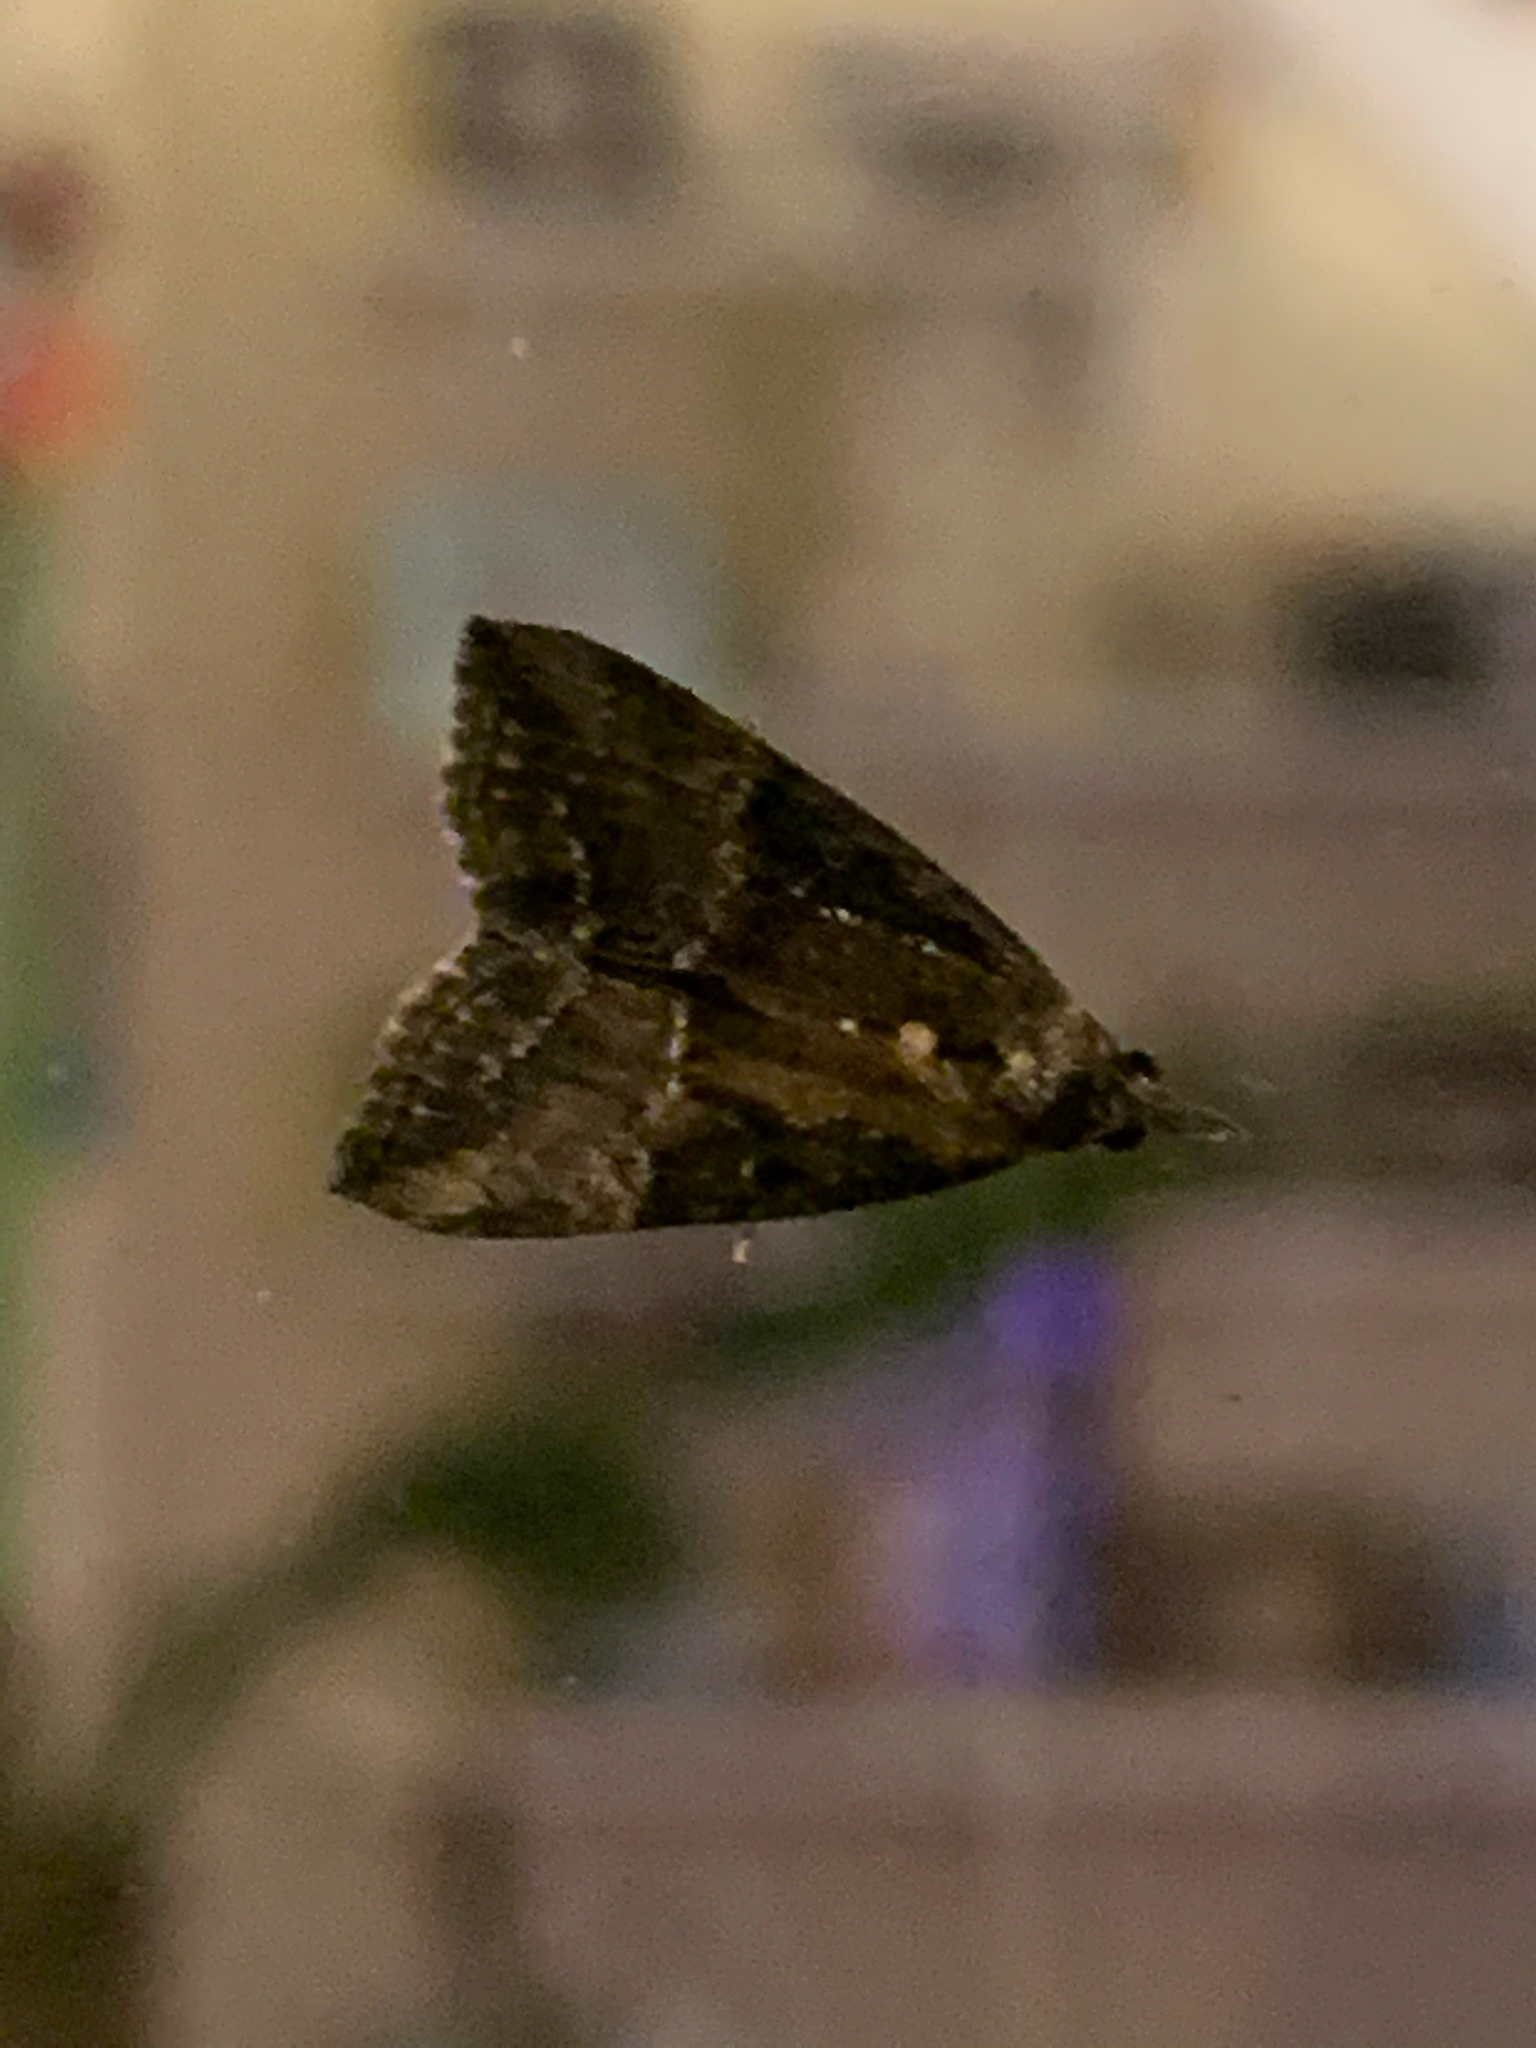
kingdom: Animalia
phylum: Arthropoda
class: Insecta
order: Lepidoptera
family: Erebidae
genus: Hypena
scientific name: Hypena scabra
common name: Green cloverworm
